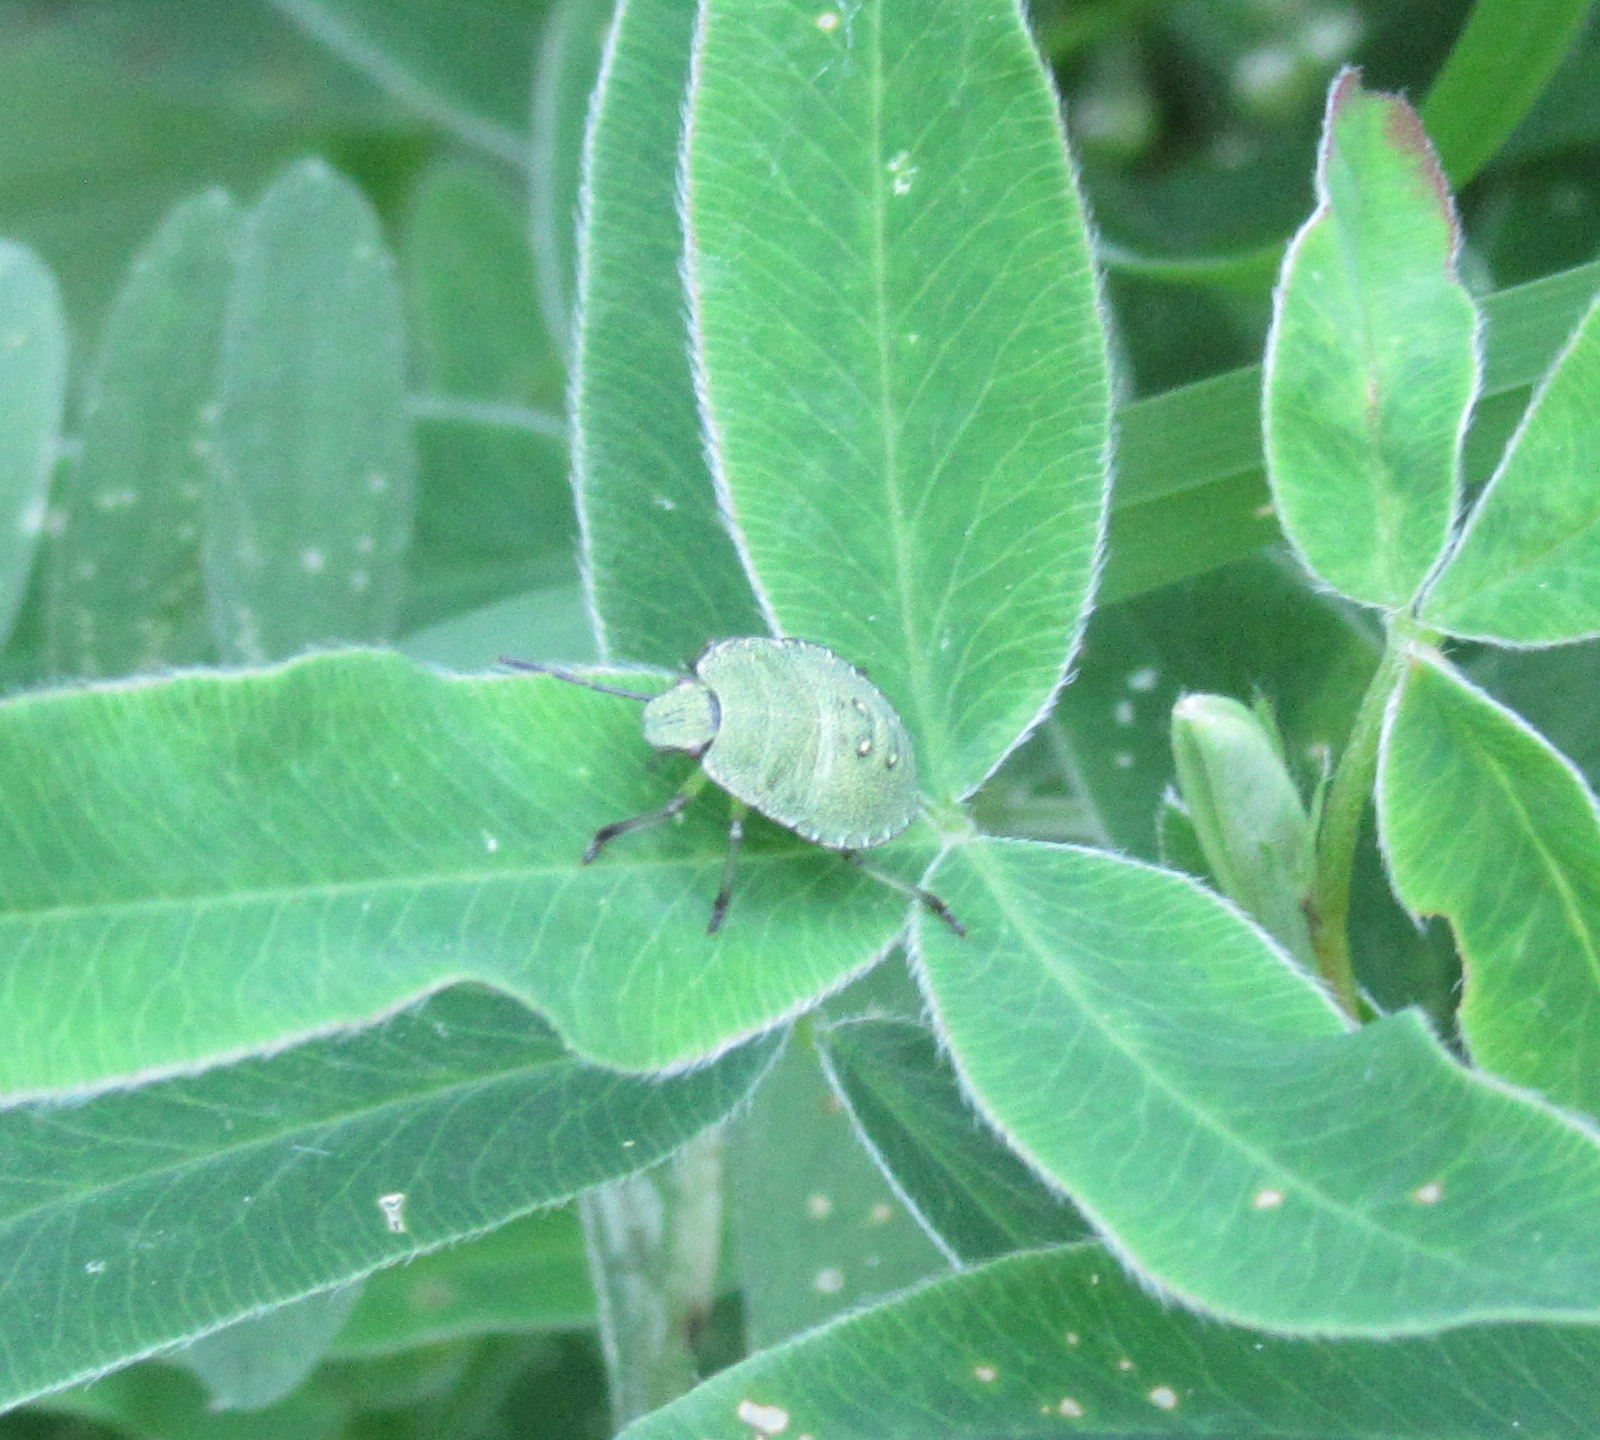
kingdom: Animalia
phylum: Arthropoda
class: Insecta
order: Hemiptera
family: Pentatomidae
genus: Palomena
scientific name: Palomena prasina
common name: Green shieldbug
